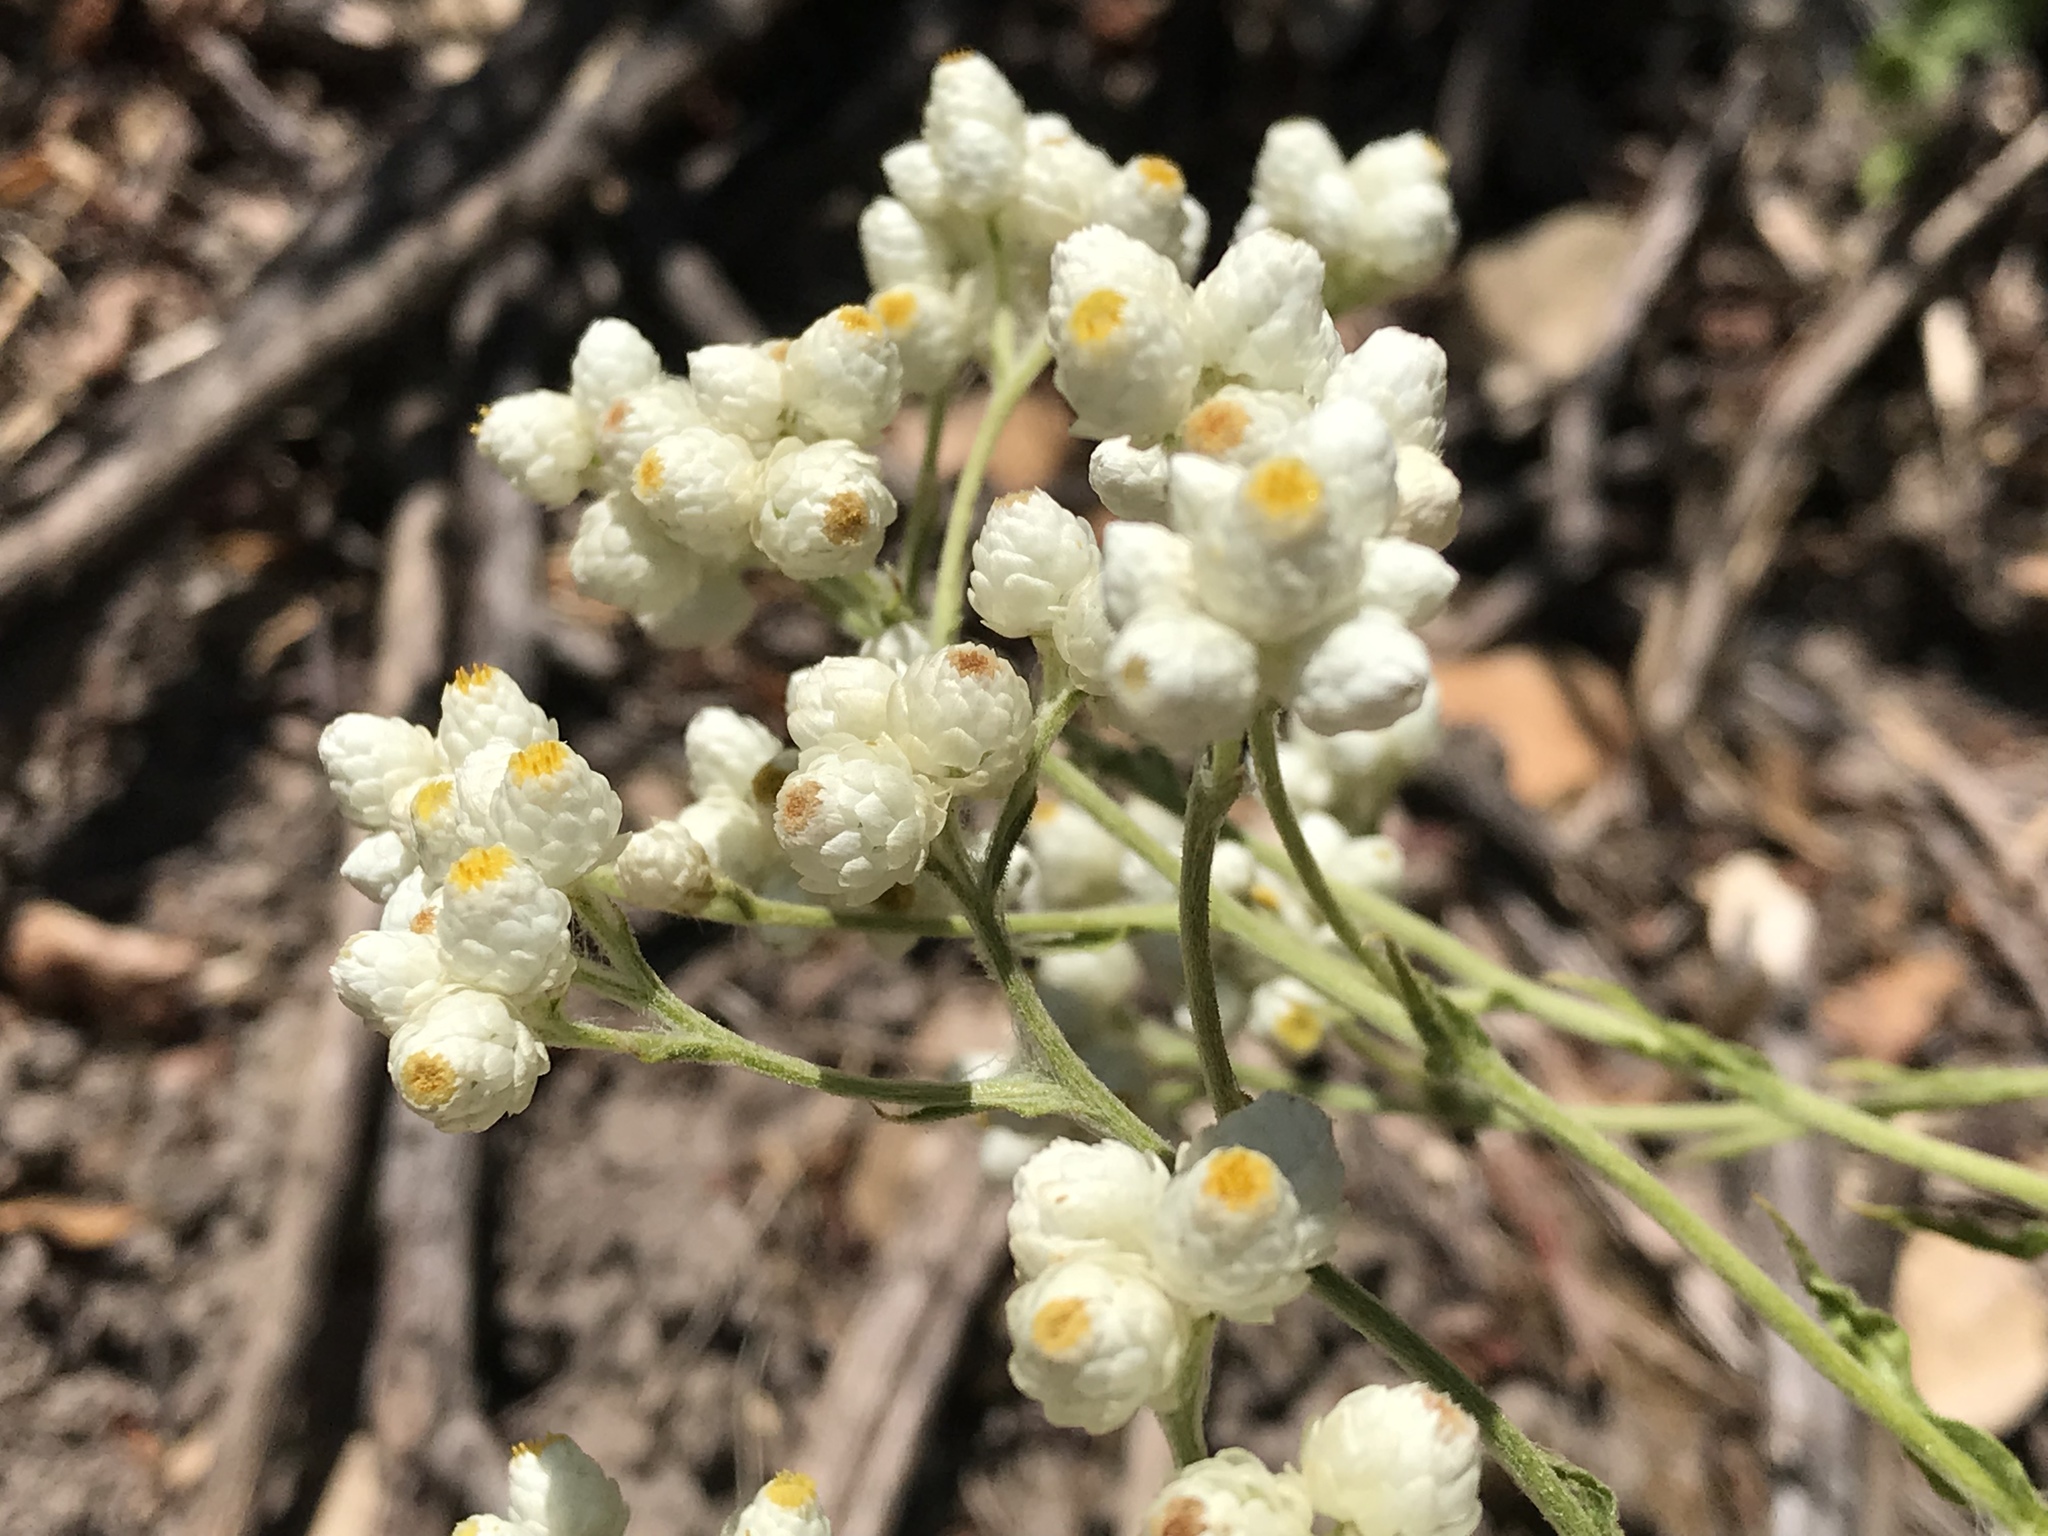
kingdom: Plantae
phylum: Tracheophyta
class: Magnoliopsida
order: Asterales
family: Asteraceae
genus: Pseudognaphalium
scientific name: Pseudognaphalium californicum
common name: California rabbit-tobacco
